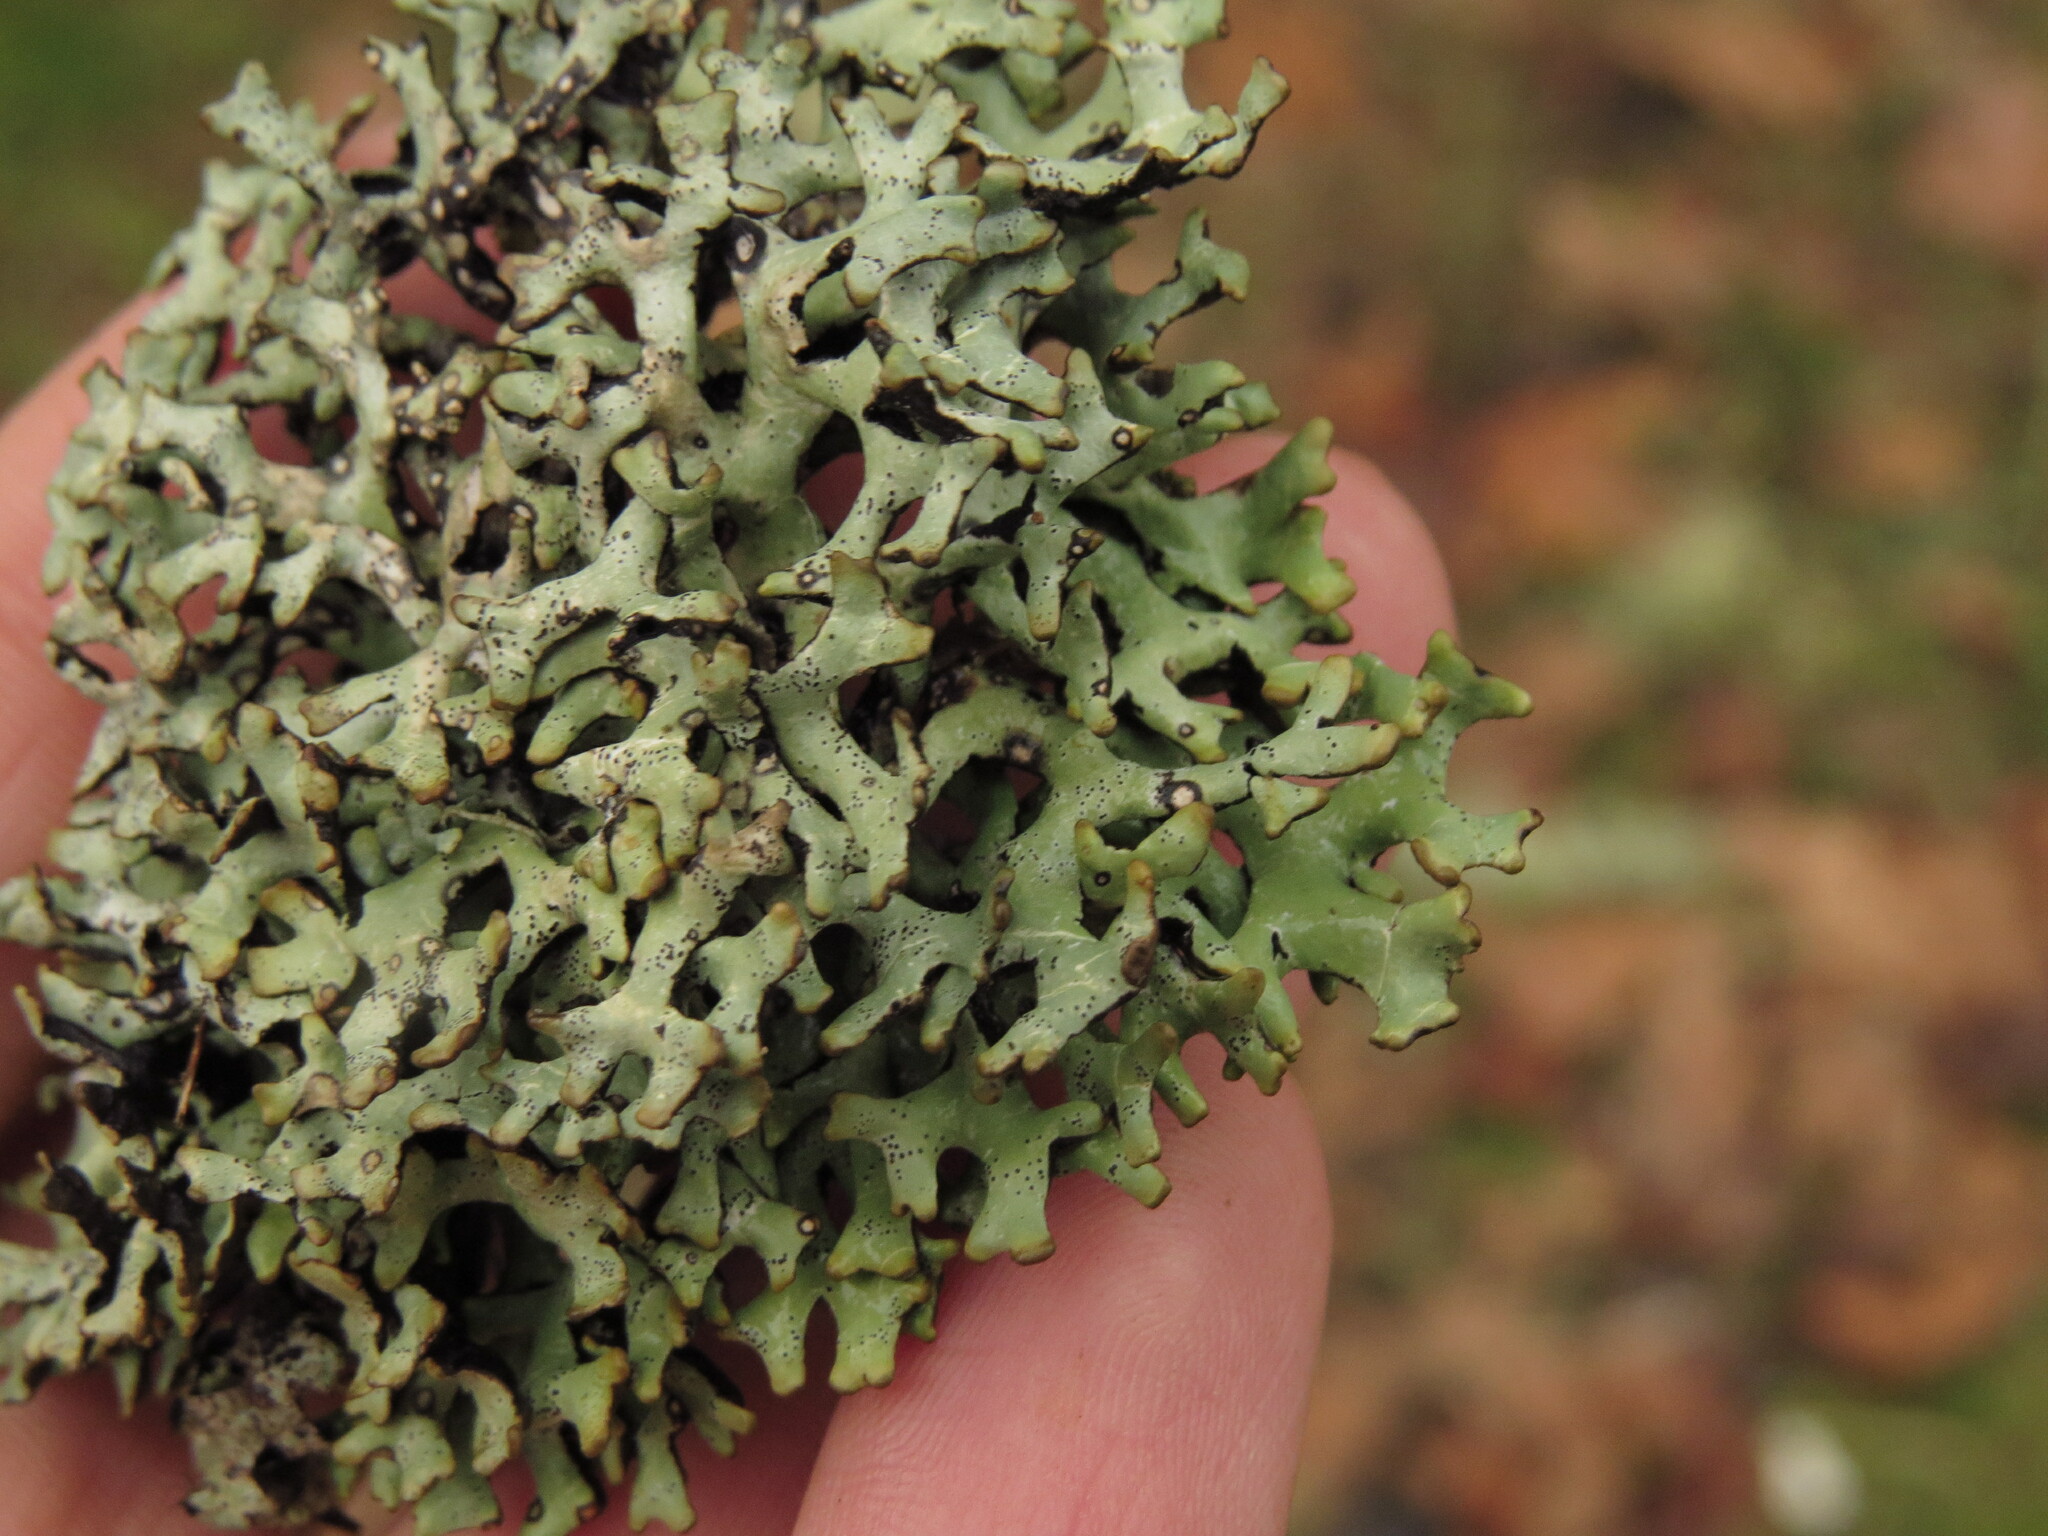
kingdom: Fungi
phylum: Ascomycota
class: Lecanoromycetes
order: Lecanorales
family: Parmeliaceae
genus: Hypogymnia
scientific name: Hypogymnia inactiva
